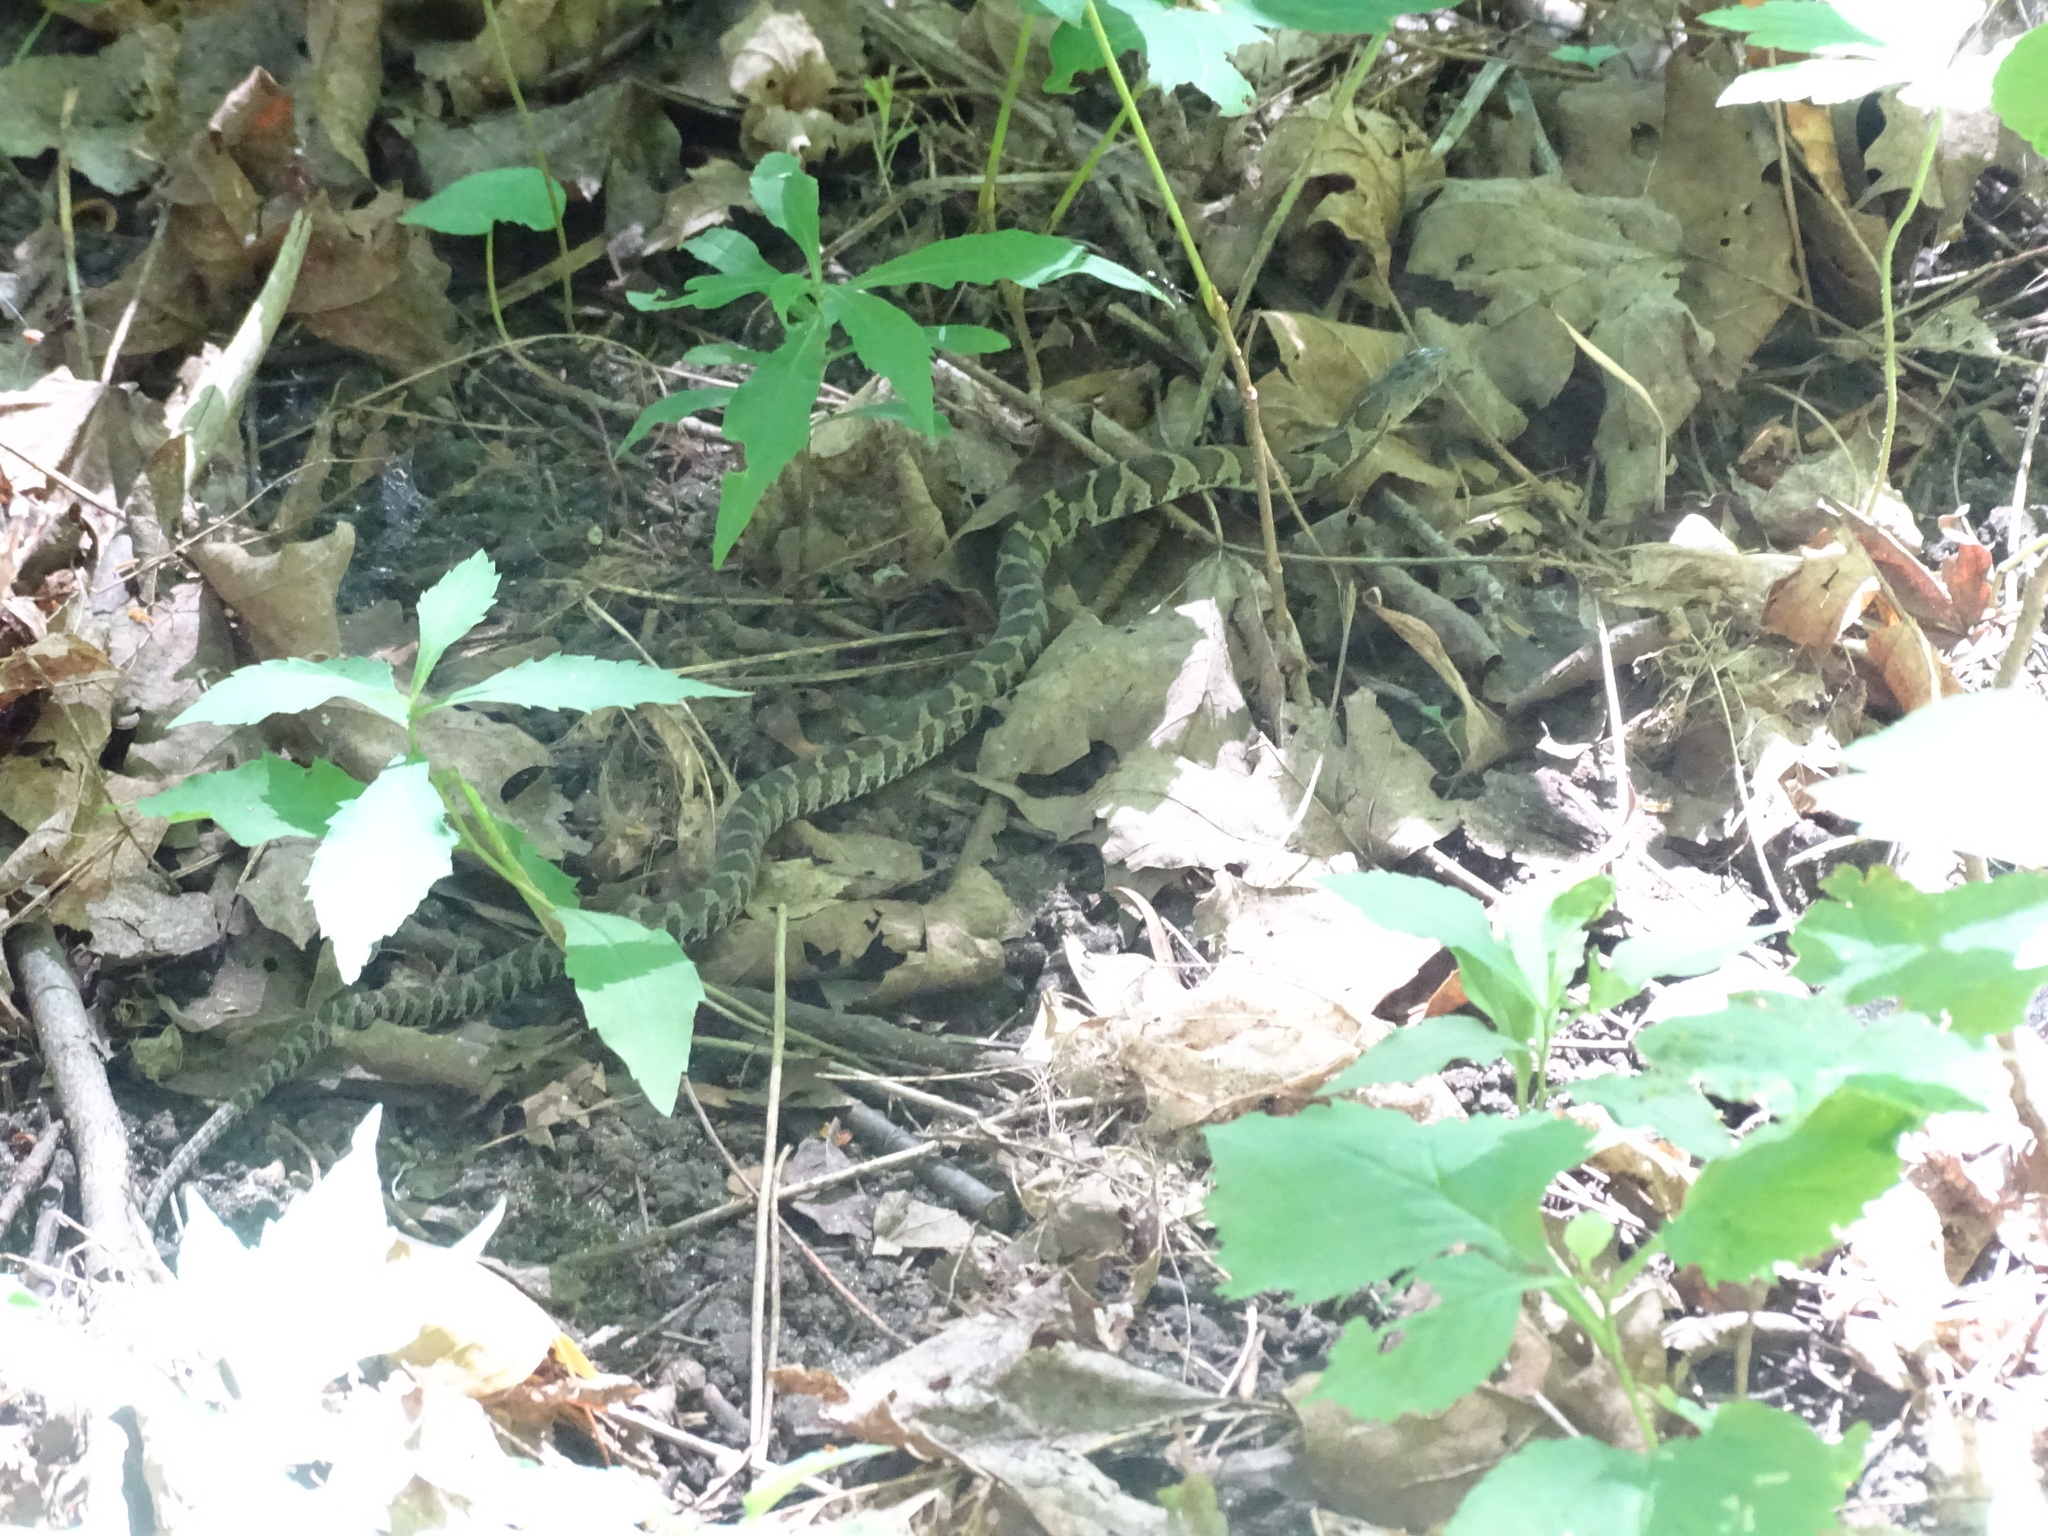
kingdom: Animalia
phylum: Chordata
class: Squamata
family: Colubridae
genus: Nerodia
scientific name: Nerodia sipedon
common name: Northern water snake
